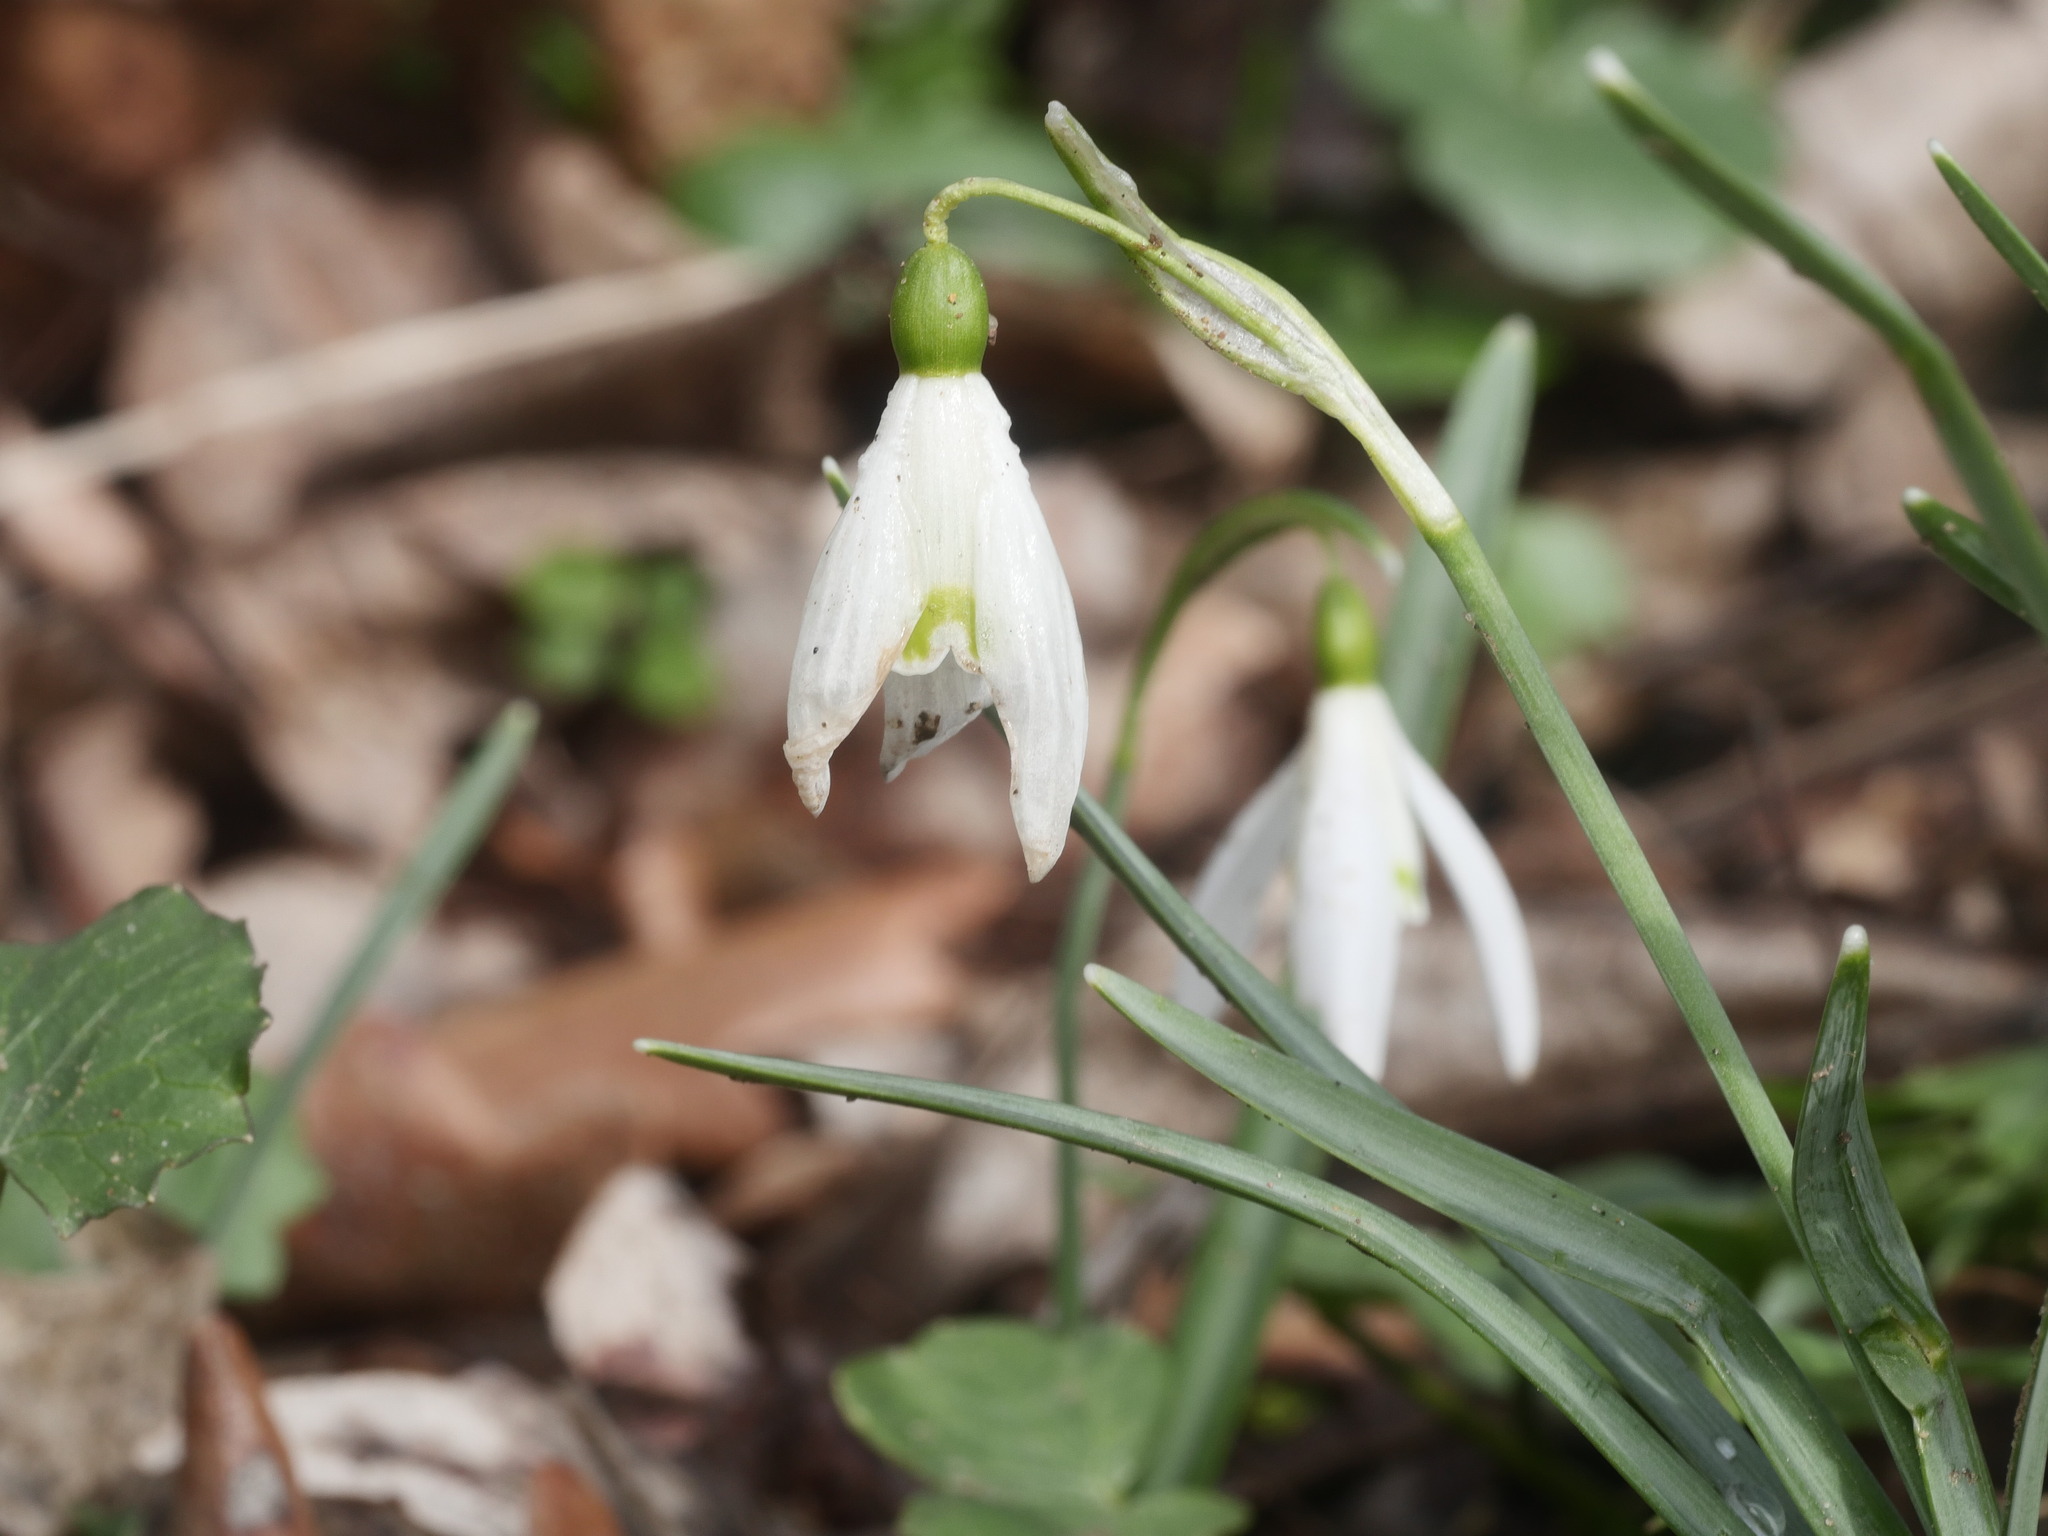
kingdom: Plantae
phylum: Tracheophyta
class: Liliopsida
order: Asparagales
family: Amaryllidaceae
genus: Galanthus
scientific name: Galanthus nivalis
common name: Snowdrop
